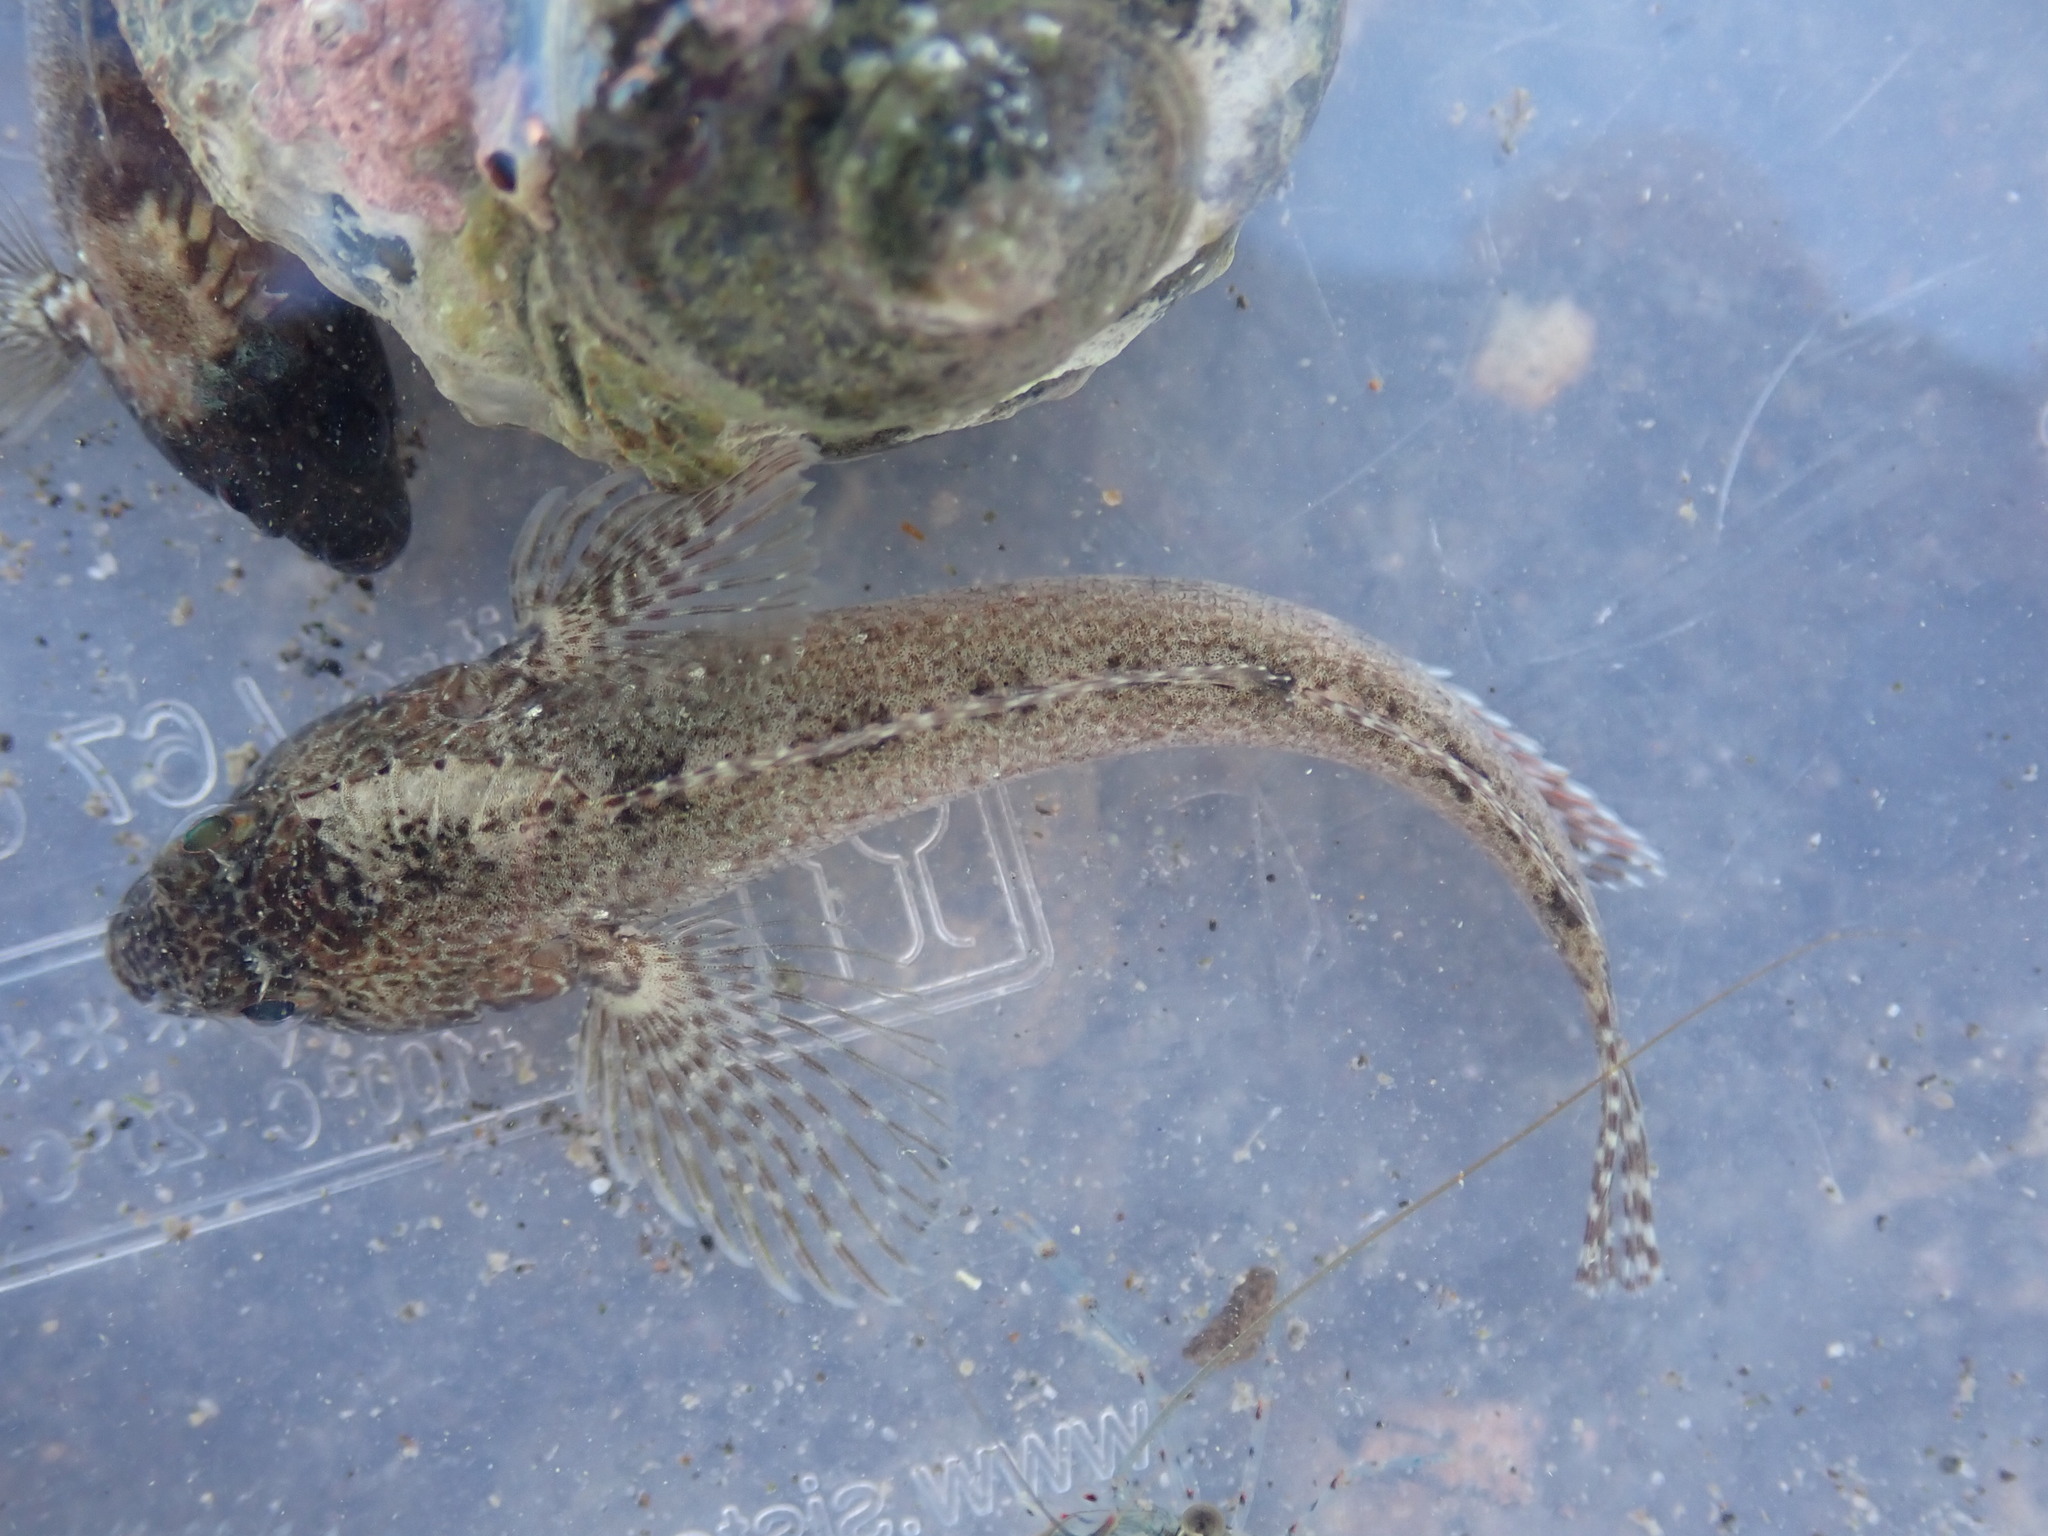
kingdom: Animalia
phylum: Chordata
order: Perciformes
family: Tripterygiidae
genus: Forsterygion
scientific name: Forsterygion gymnotum
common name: Multifid-tentacled robust triplefin
